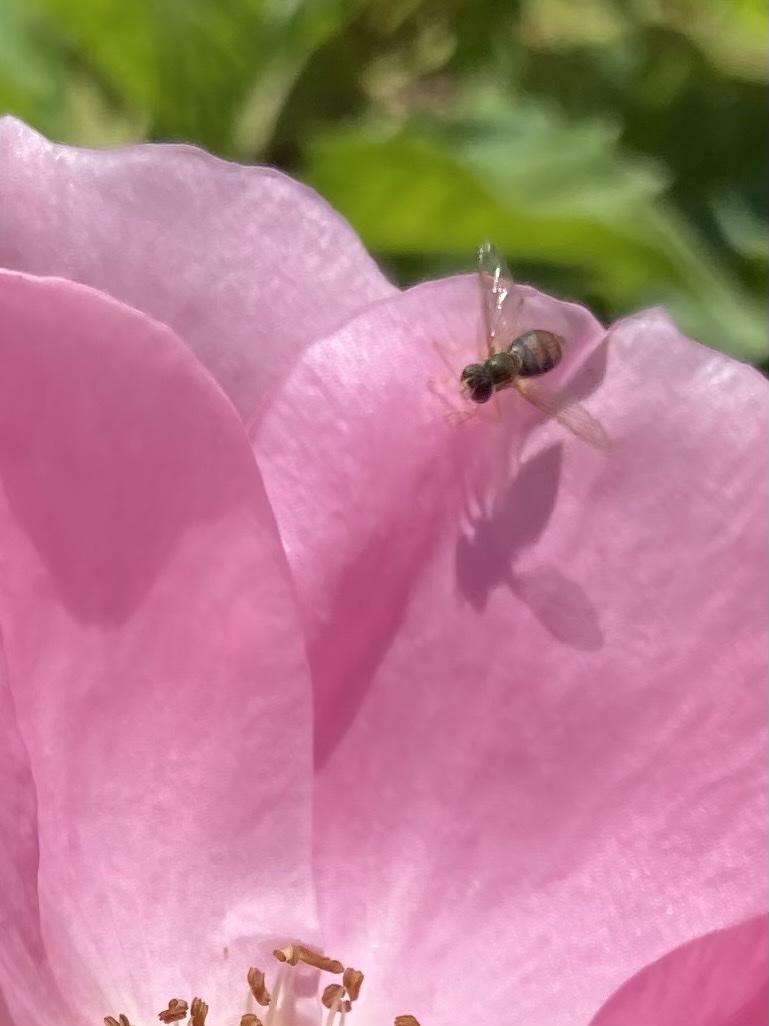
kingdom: Animalia
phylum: Arthropoda
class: Insecta
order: Diptera
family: Syrphidae
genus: Toxomerus
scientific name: Toxomerus marginatus
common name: Syrphid fly
